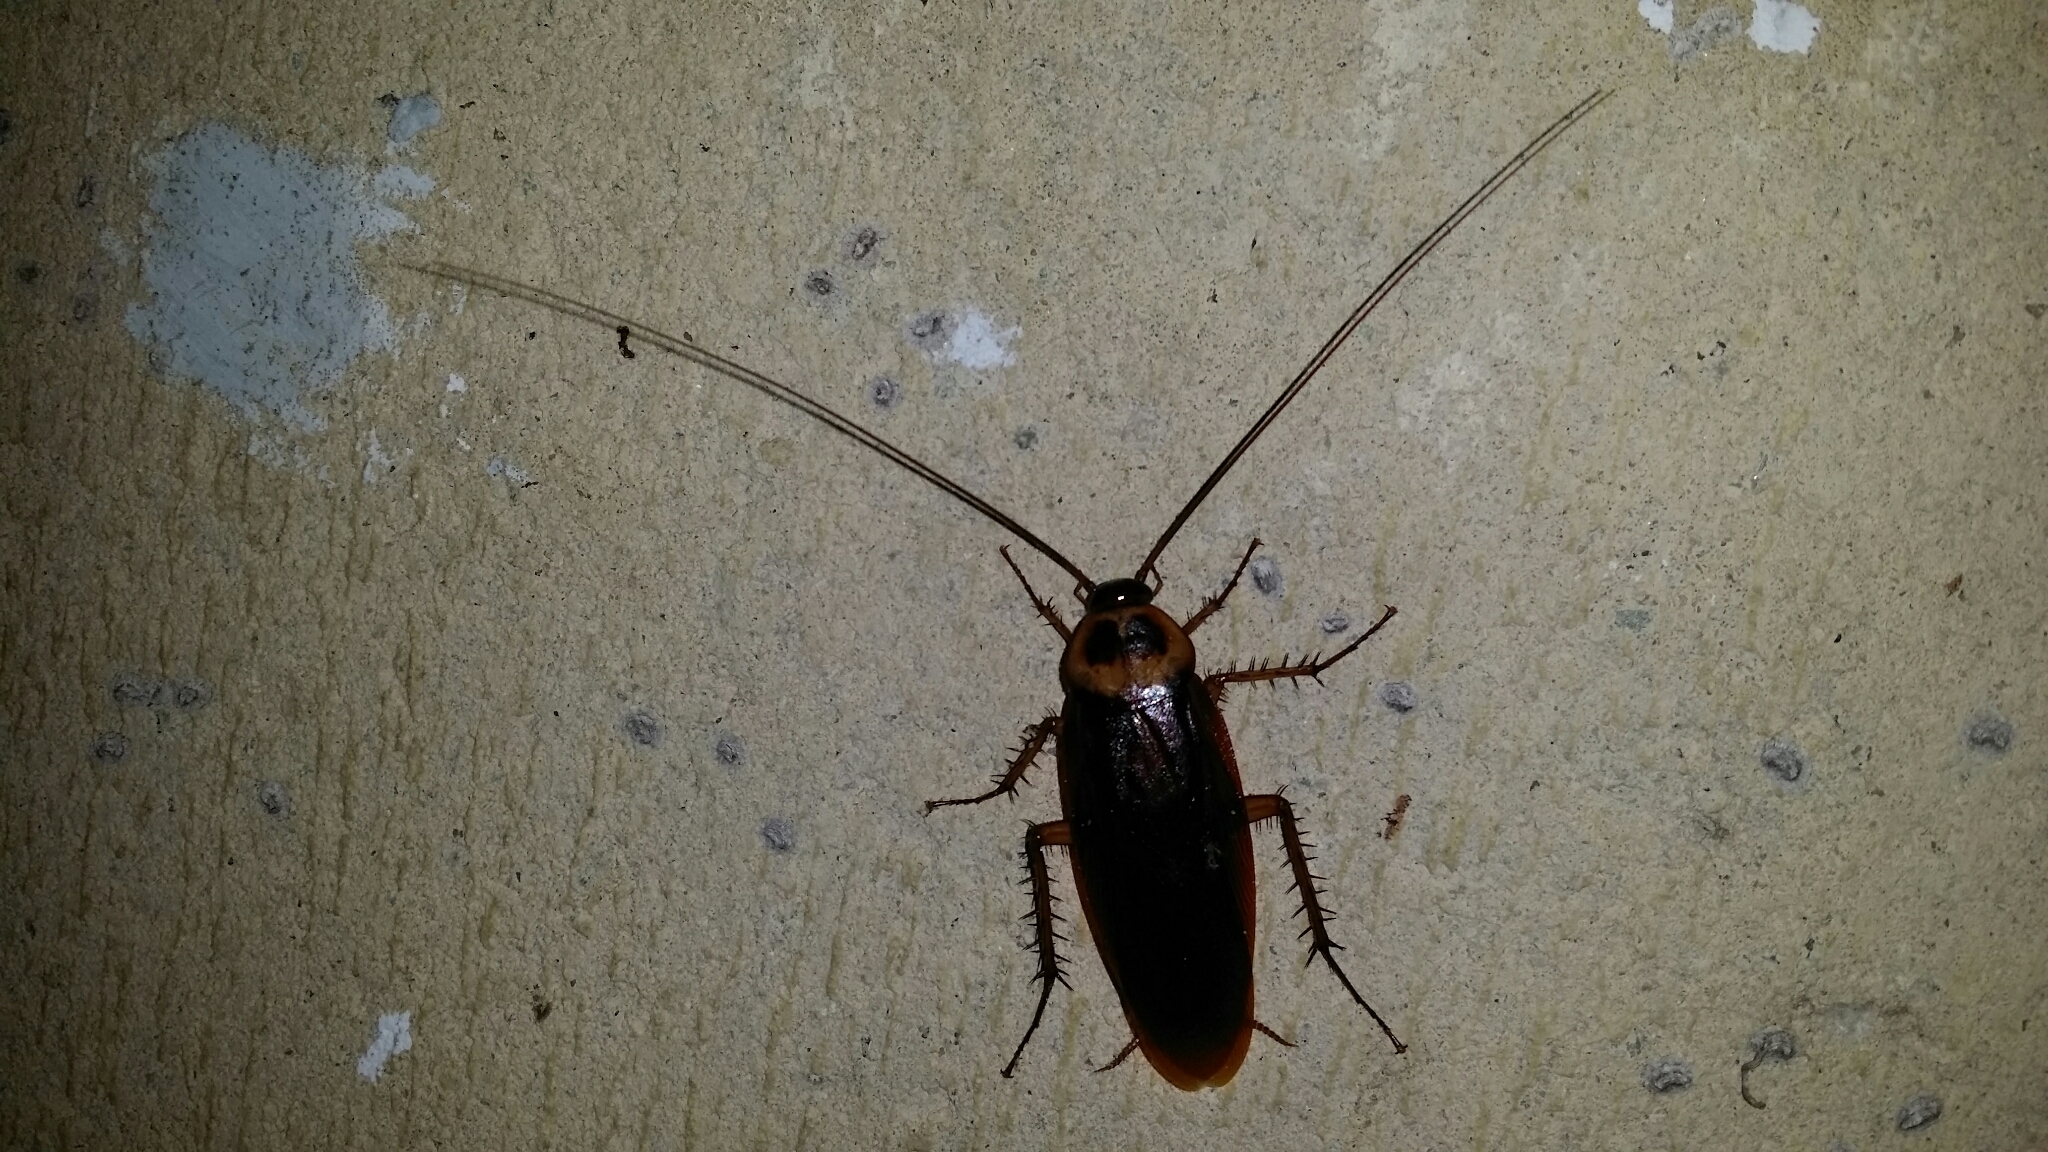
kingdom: Animalia
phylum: Arthropoda
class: Insecta
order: Blattodea
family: Blattidae
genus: Periplaneta
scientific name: Periplaneta americana
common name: American cockroach
